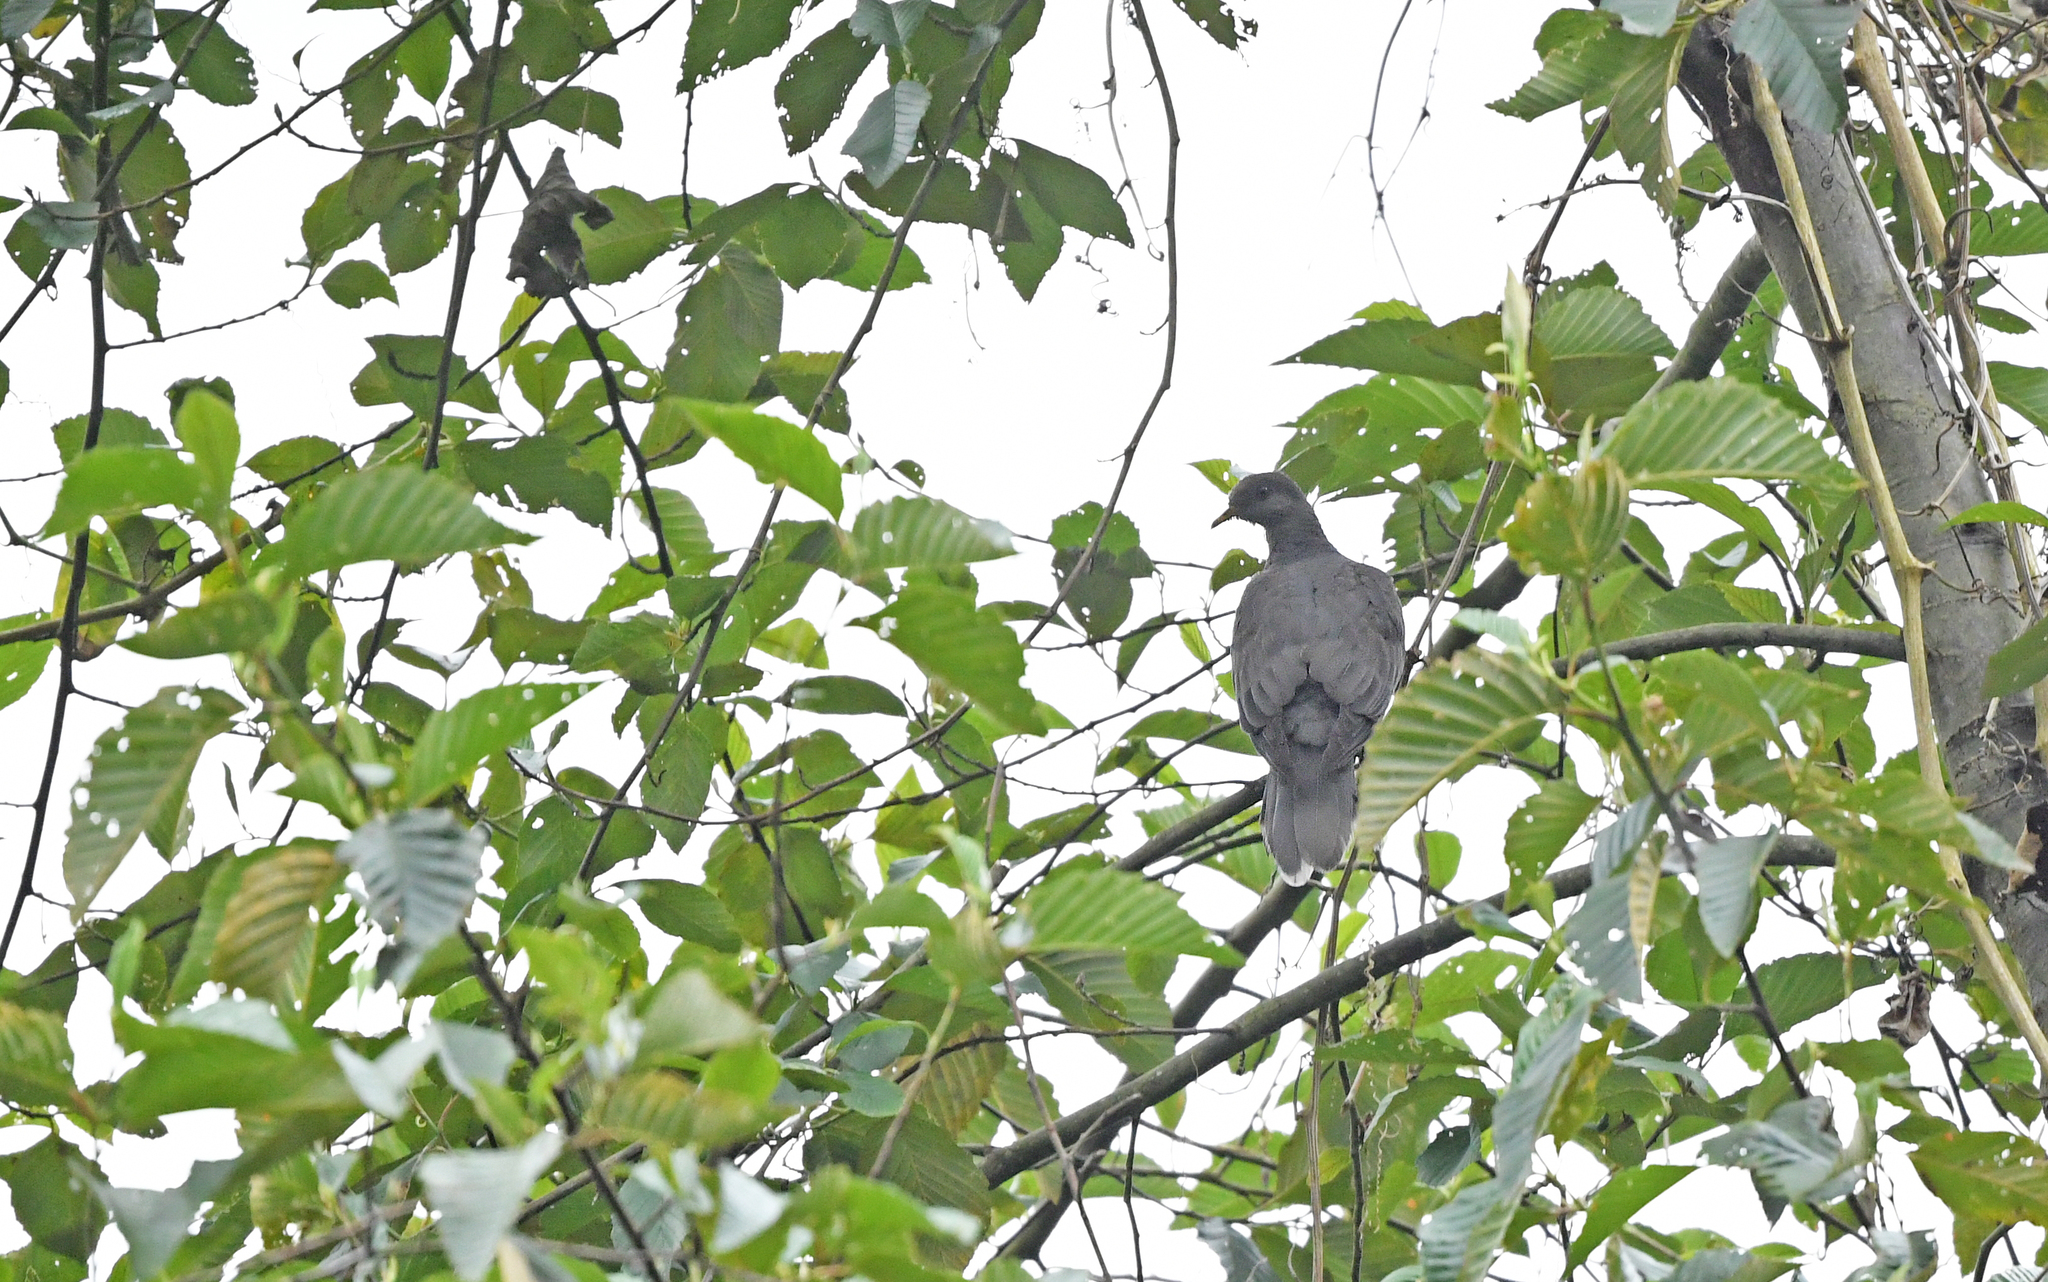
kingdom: Animalia
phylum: Chordata
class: Aves
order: Columbiformes
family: Columbidae
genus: Patagioenas
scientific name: Patagioenas cayennensis
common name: Pale-vented pigeon
